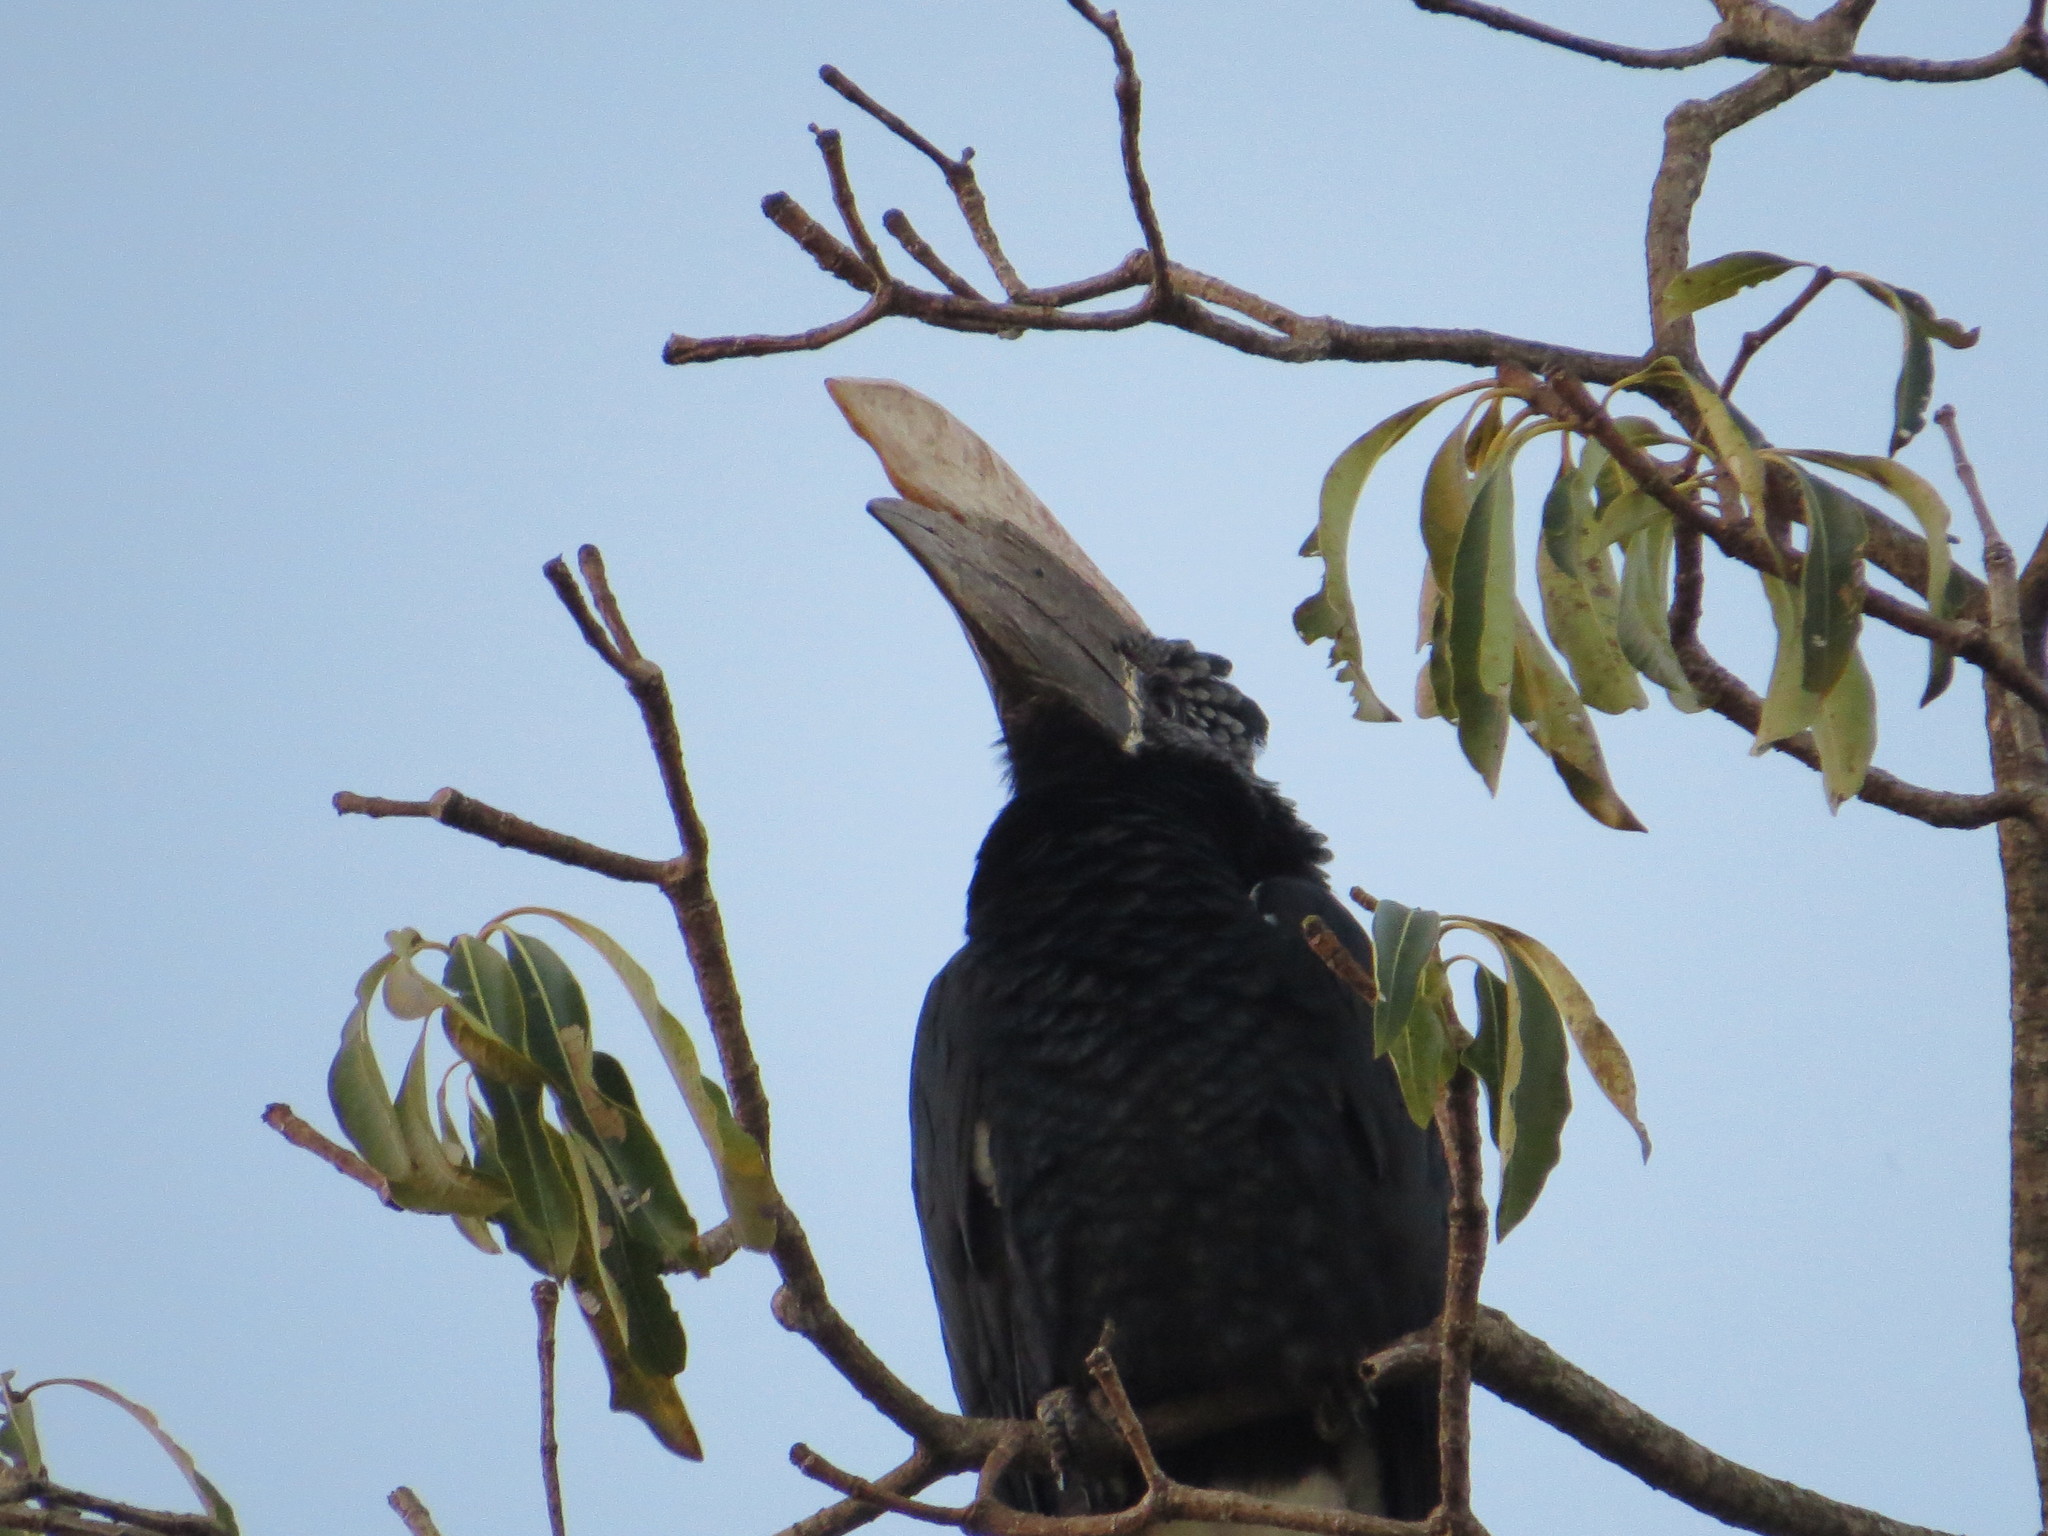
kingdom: Animalia
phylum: Chordata
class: Aves
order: Bucerotiformes
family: Bucerotidae
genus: Bycanistes
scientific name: Bycanistes brevis
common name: Silvery-cheeked hornbill
